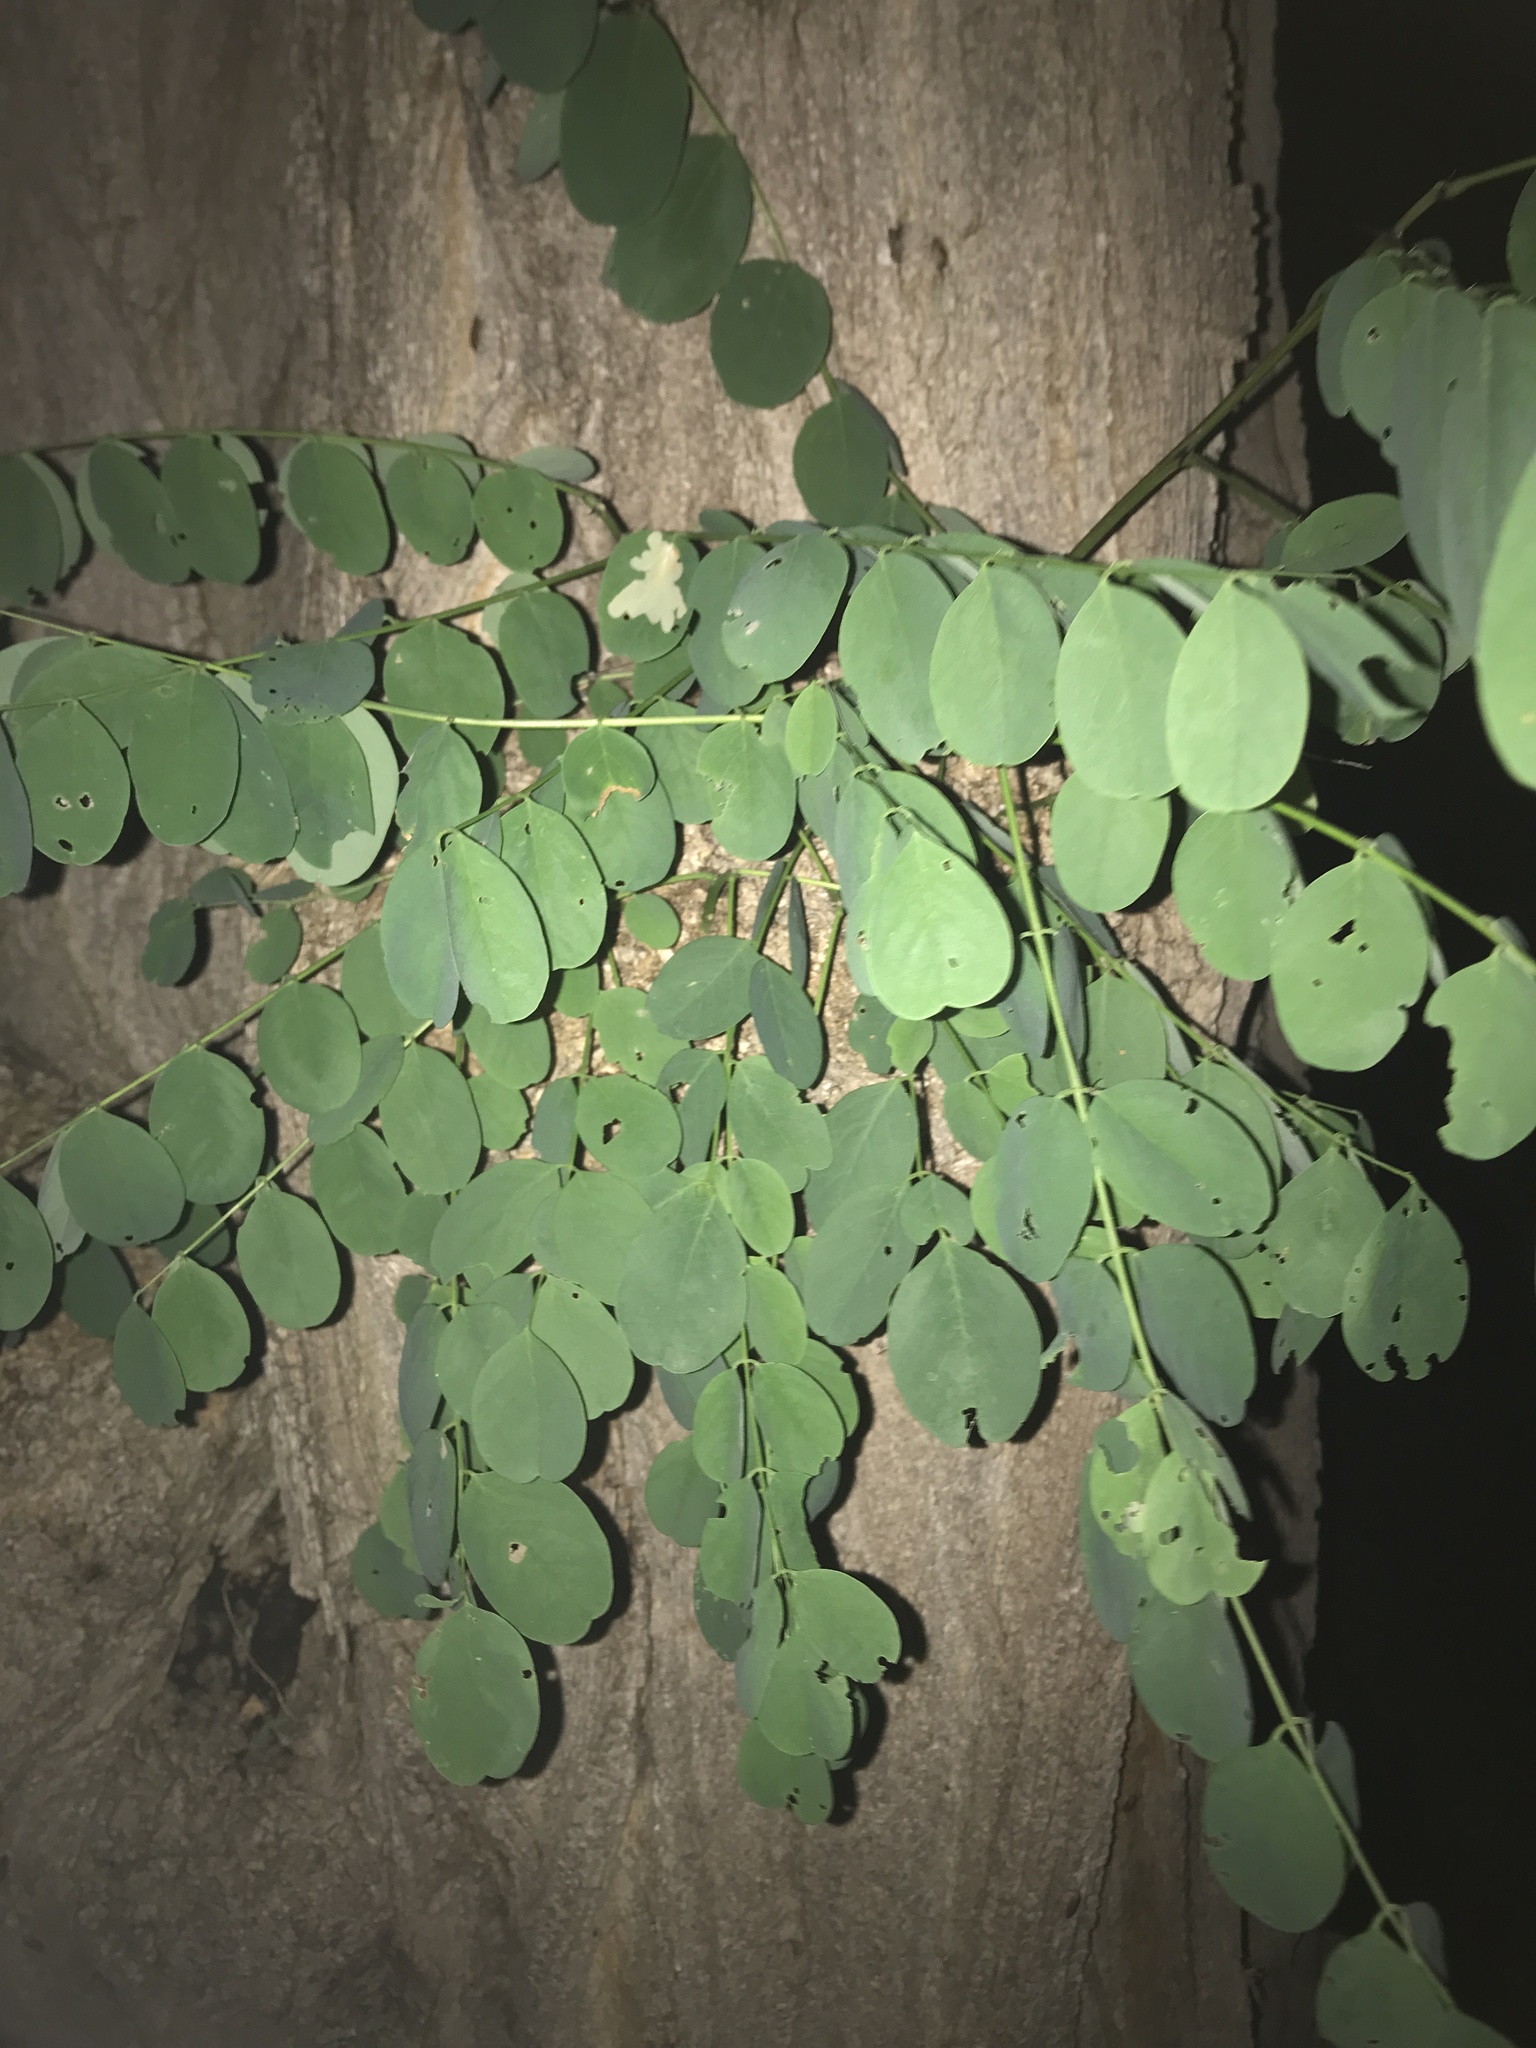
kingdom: Plantae
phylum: Tracheophyta
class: Magnoliopsida
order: Fabales
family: Fabaceae
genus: Robinia
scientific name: Robinia pseudoacacia
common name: Black locust
